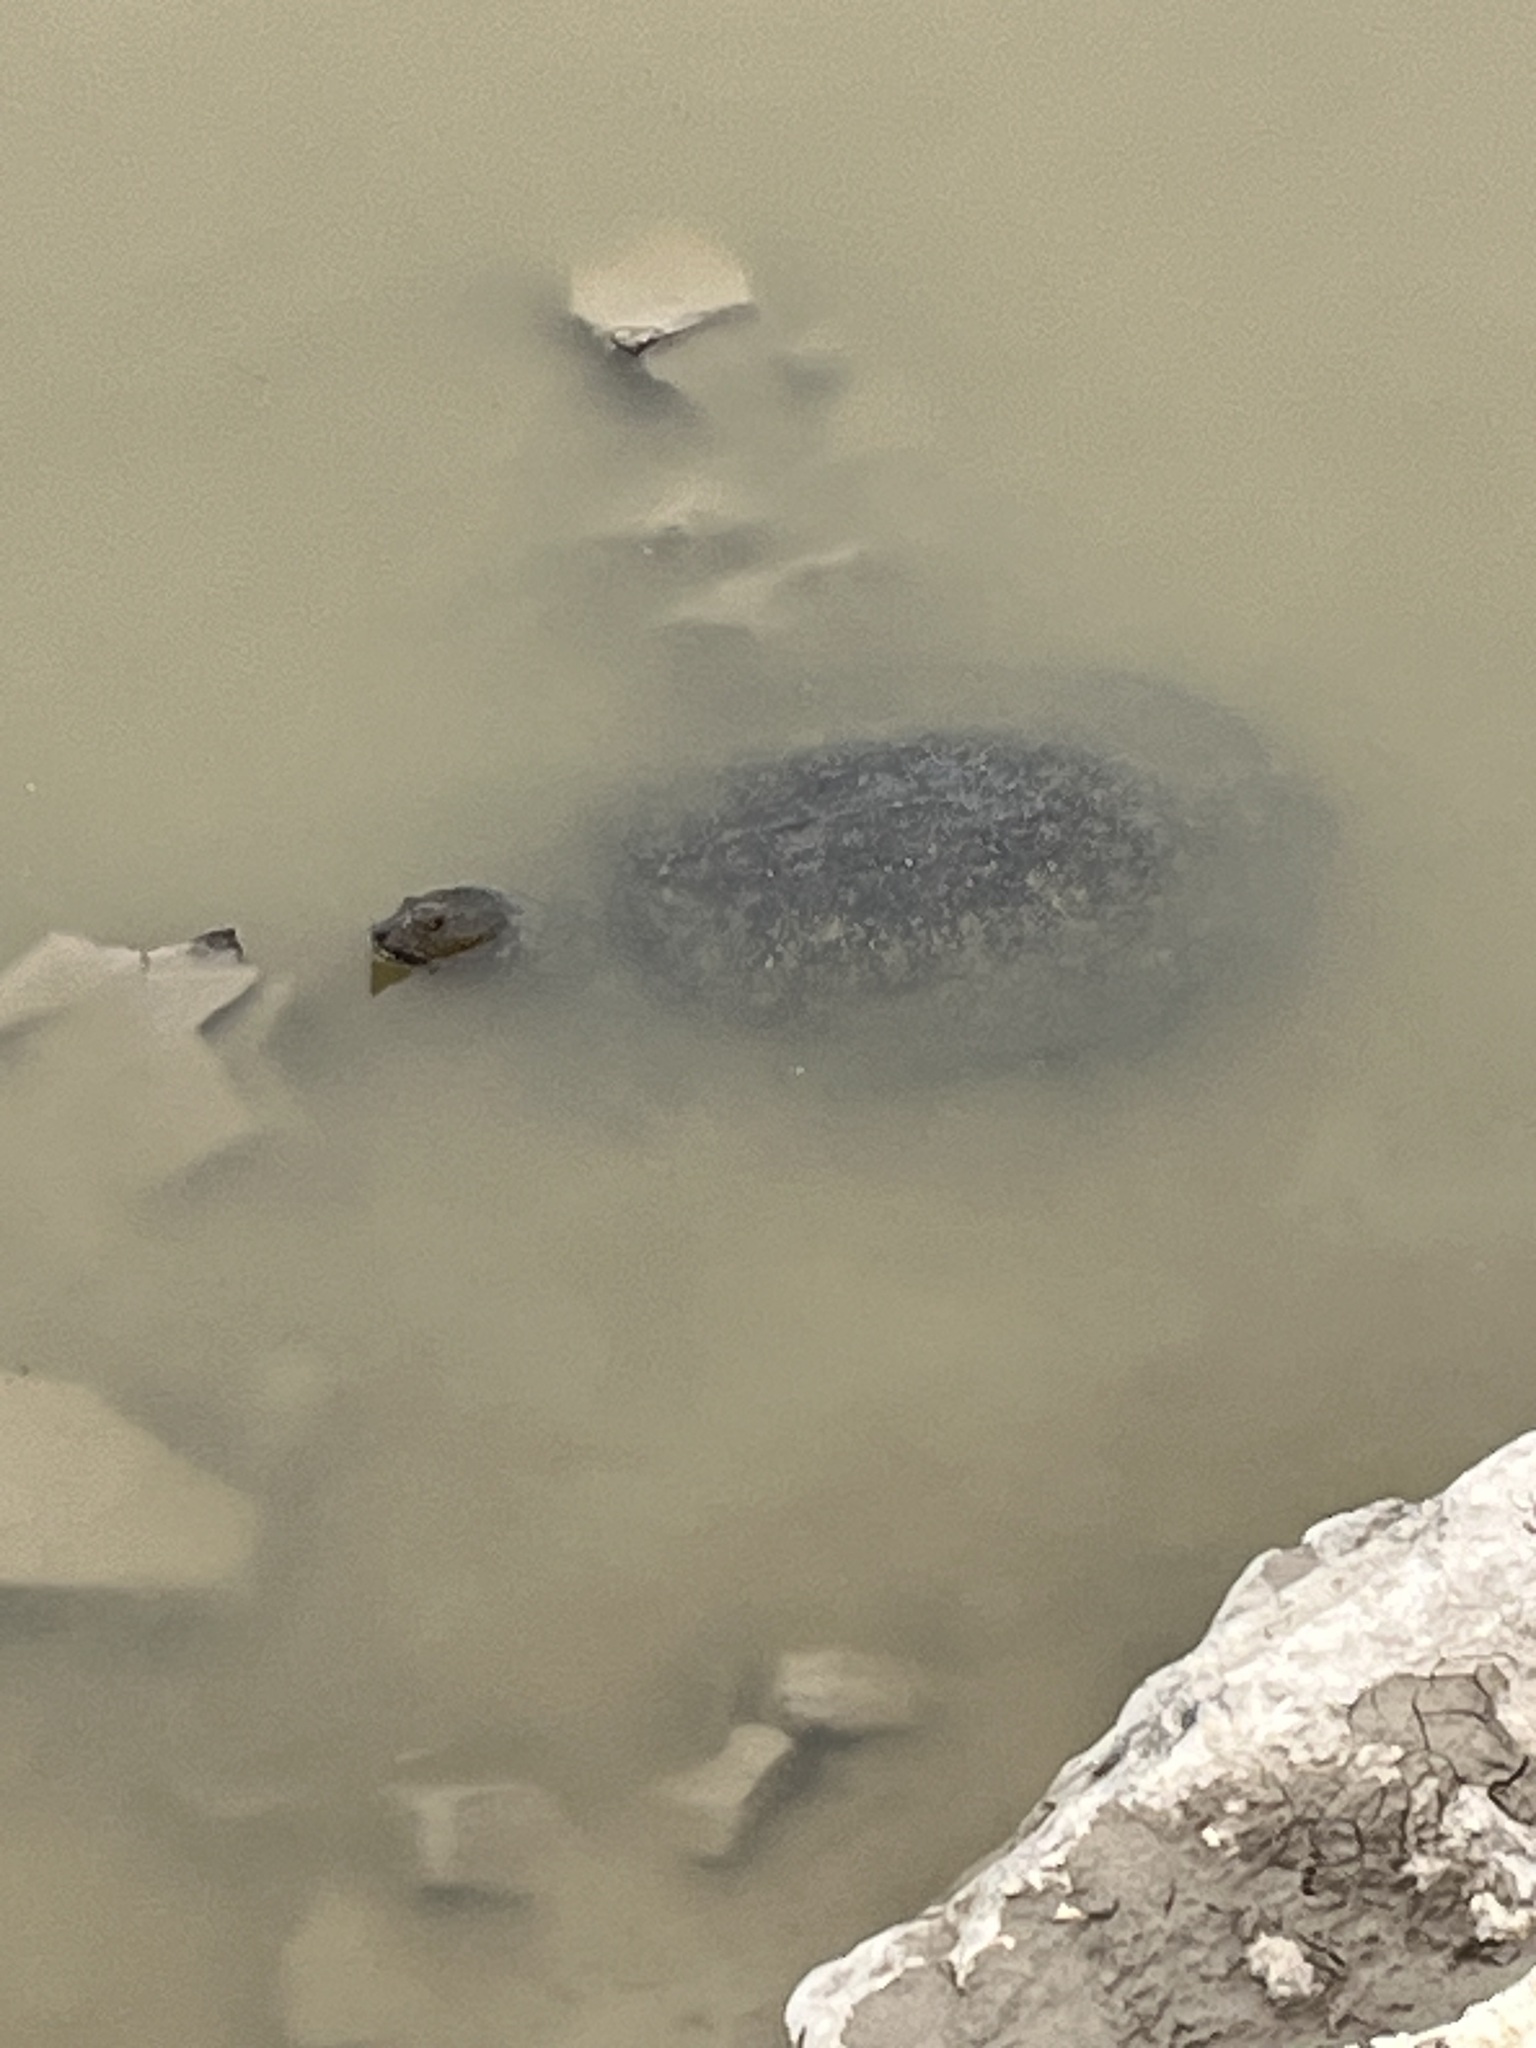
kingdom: Animalia
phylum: Chordata
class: Testudines
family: Trionychidae
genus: Trionyx
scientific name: Trionyx triunguis
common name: African softshell turtle
